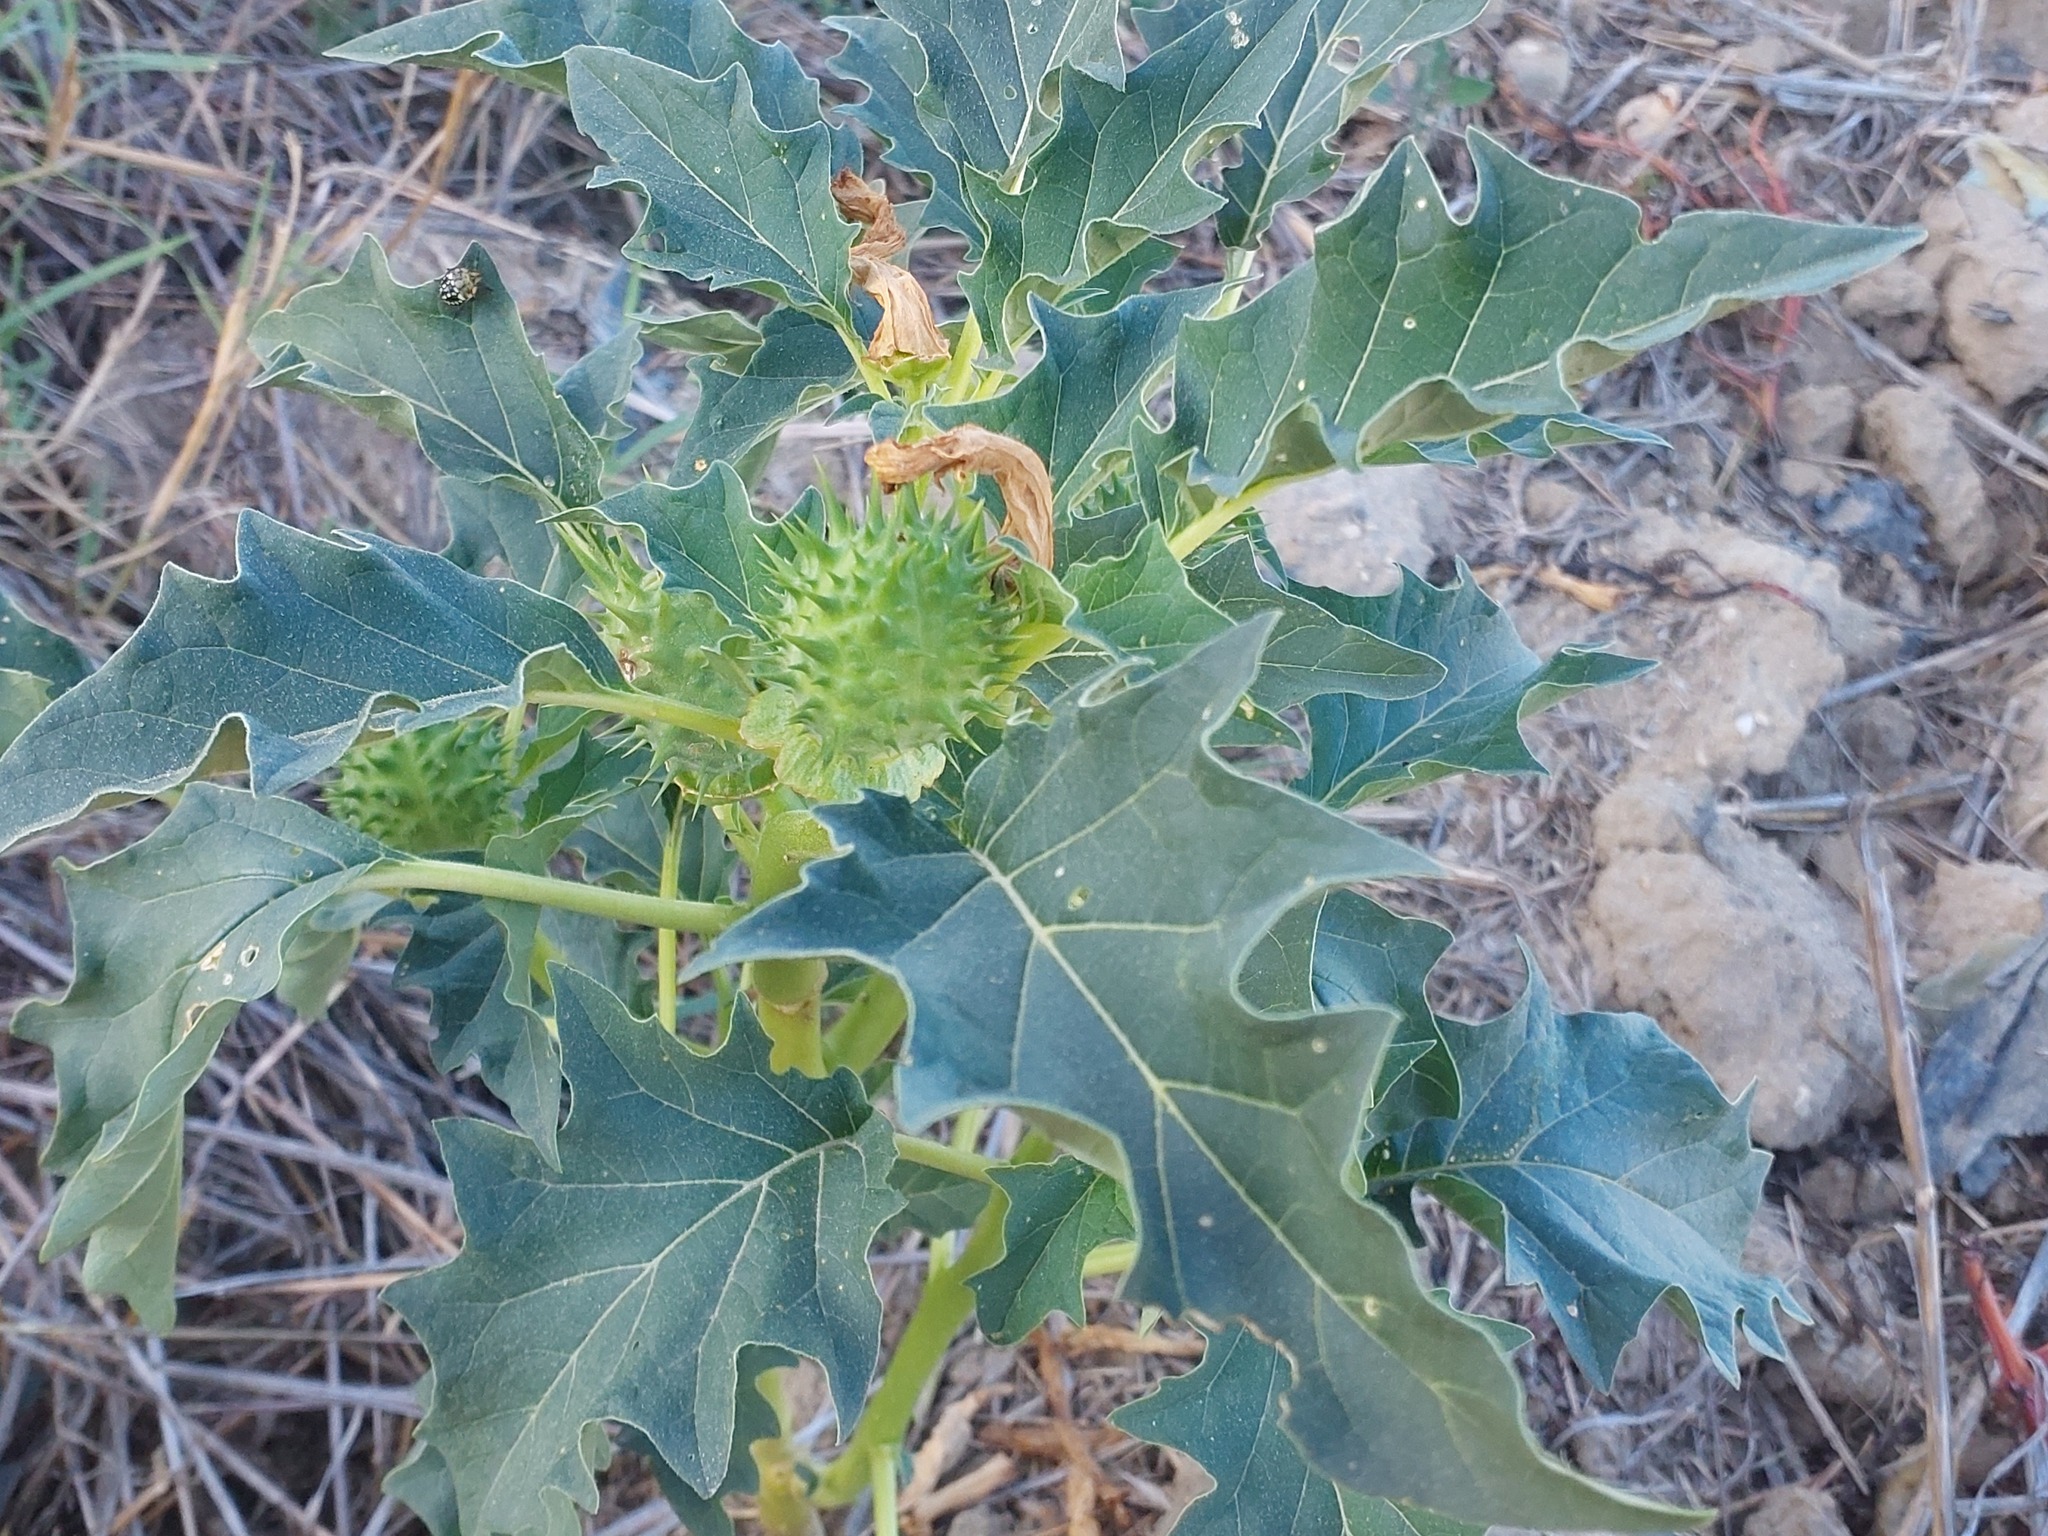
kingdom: Plantae
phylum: Tracheophyta
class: Magnoliopsida
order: Solanales
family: Solanaceae
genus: Datura
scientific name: Datura stramonium
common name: Thorn-apple
